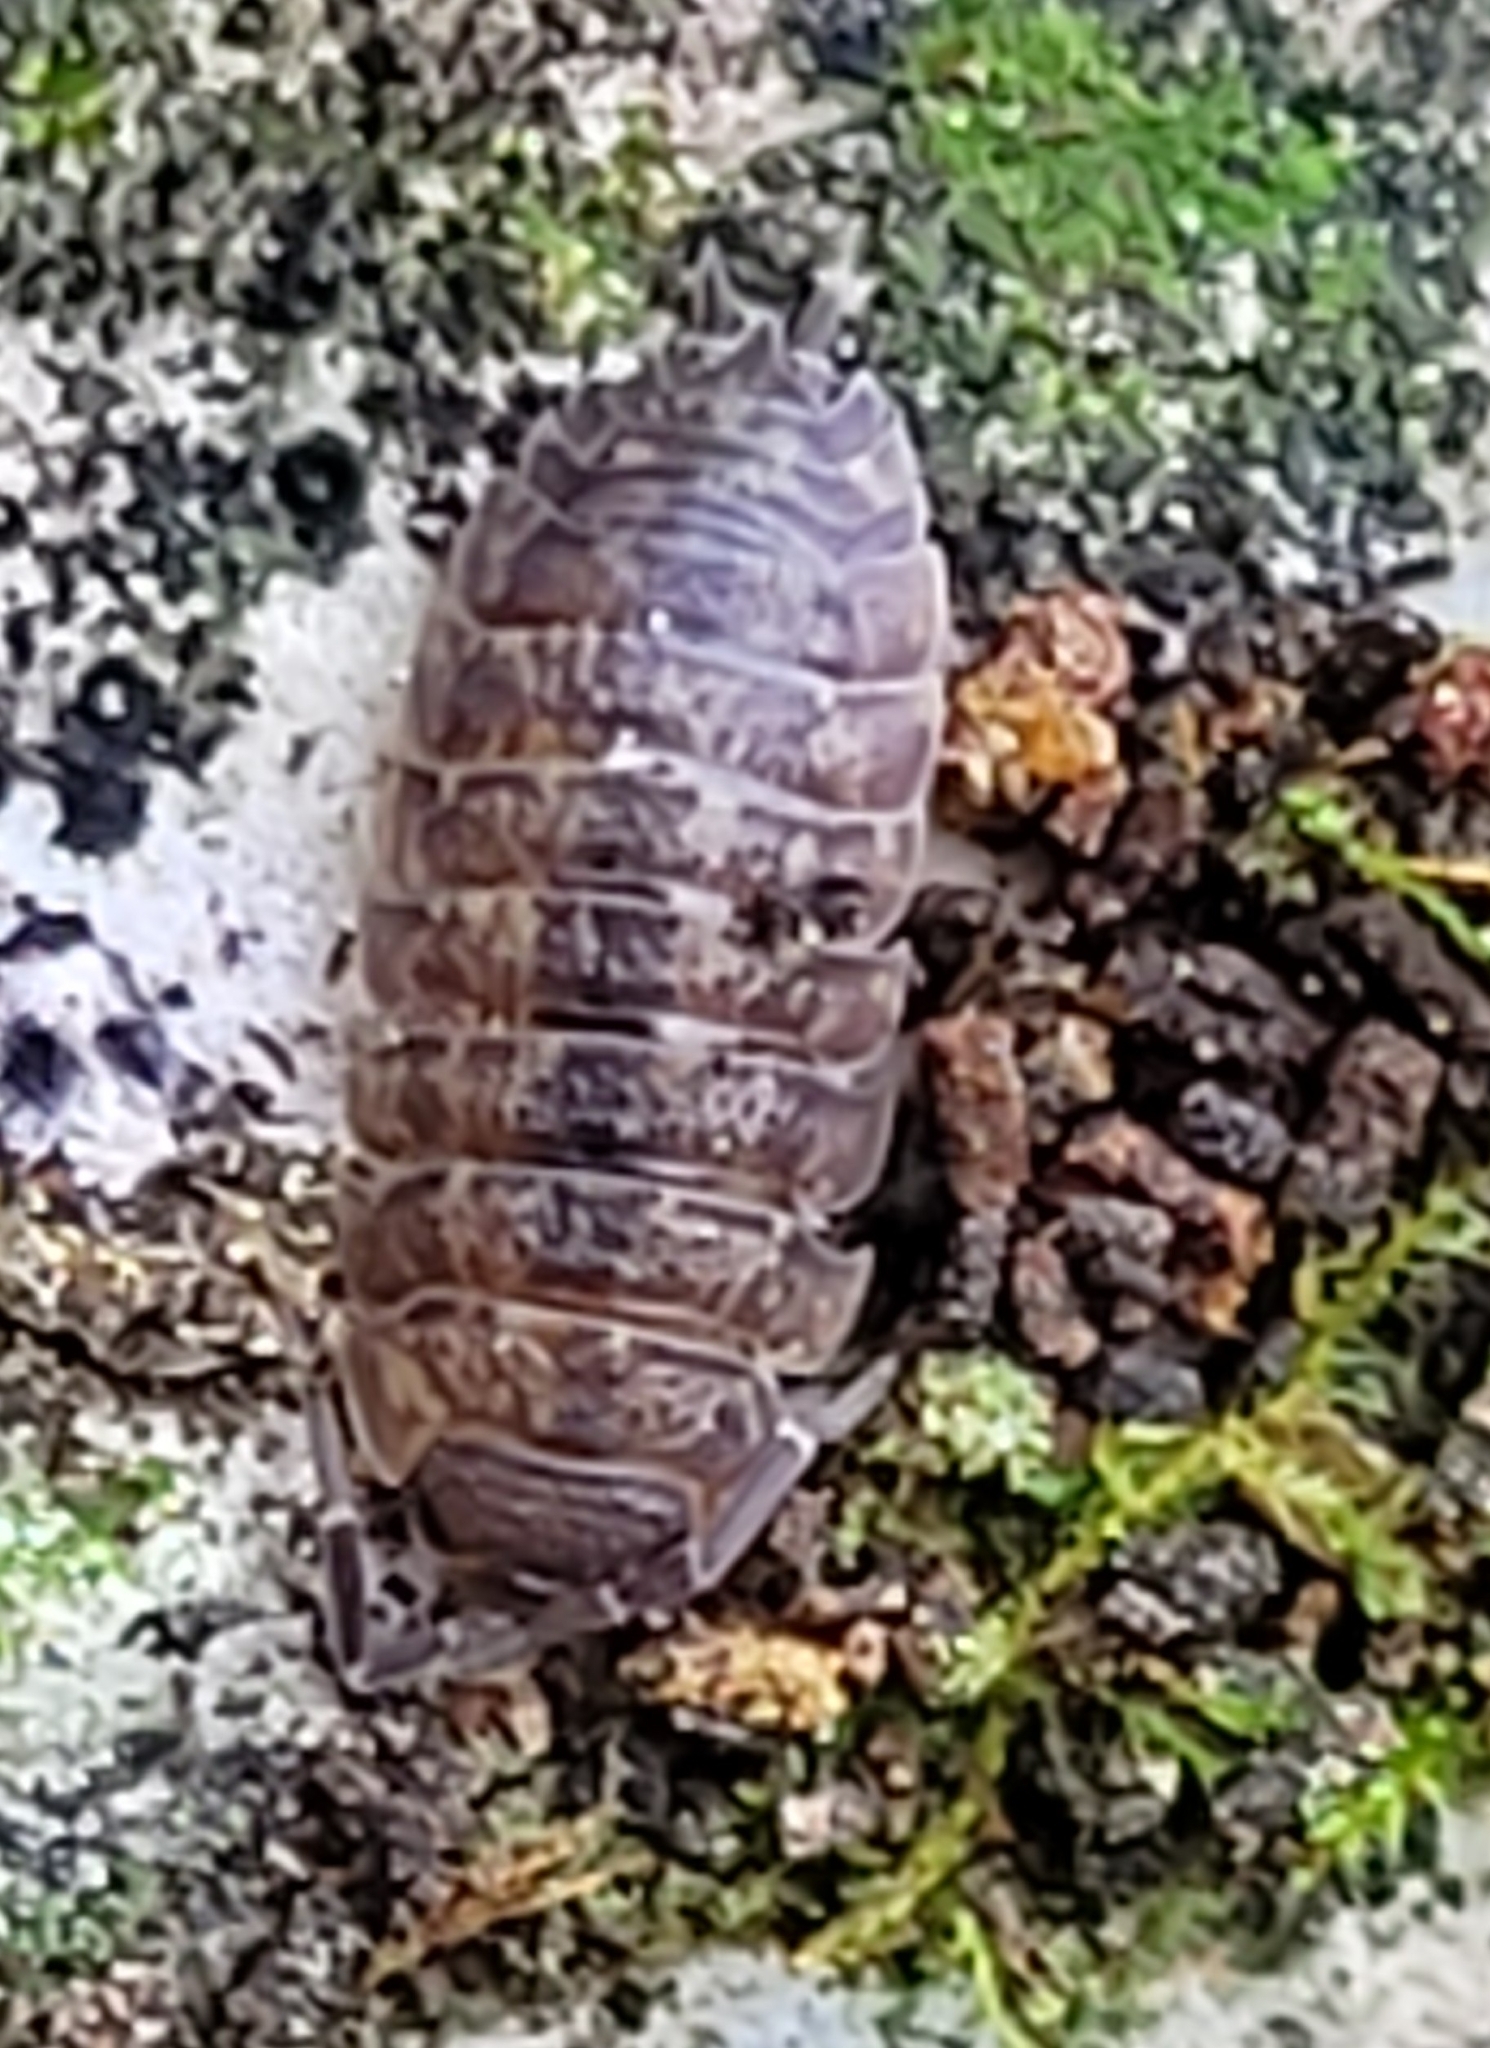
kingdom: Animalia
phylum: Arthropoda
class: Malacostraca
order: Isopoda
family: Porcellionidae
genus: Porcellio
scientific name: Porcellio scaber
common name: Common rough woodlouse
